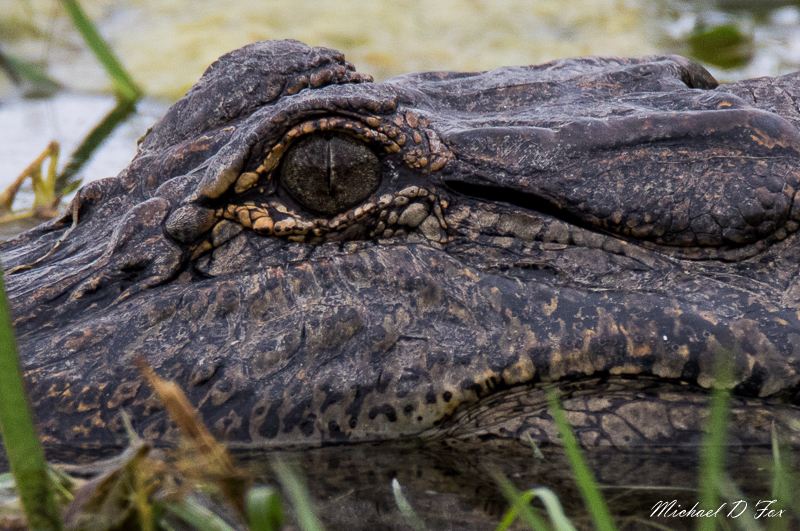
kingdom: Animalia
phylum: Chordata
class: Crocodylia
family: Alligatoridae
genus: Alligator
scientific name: Alligator mississippiensis
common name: American alligator
